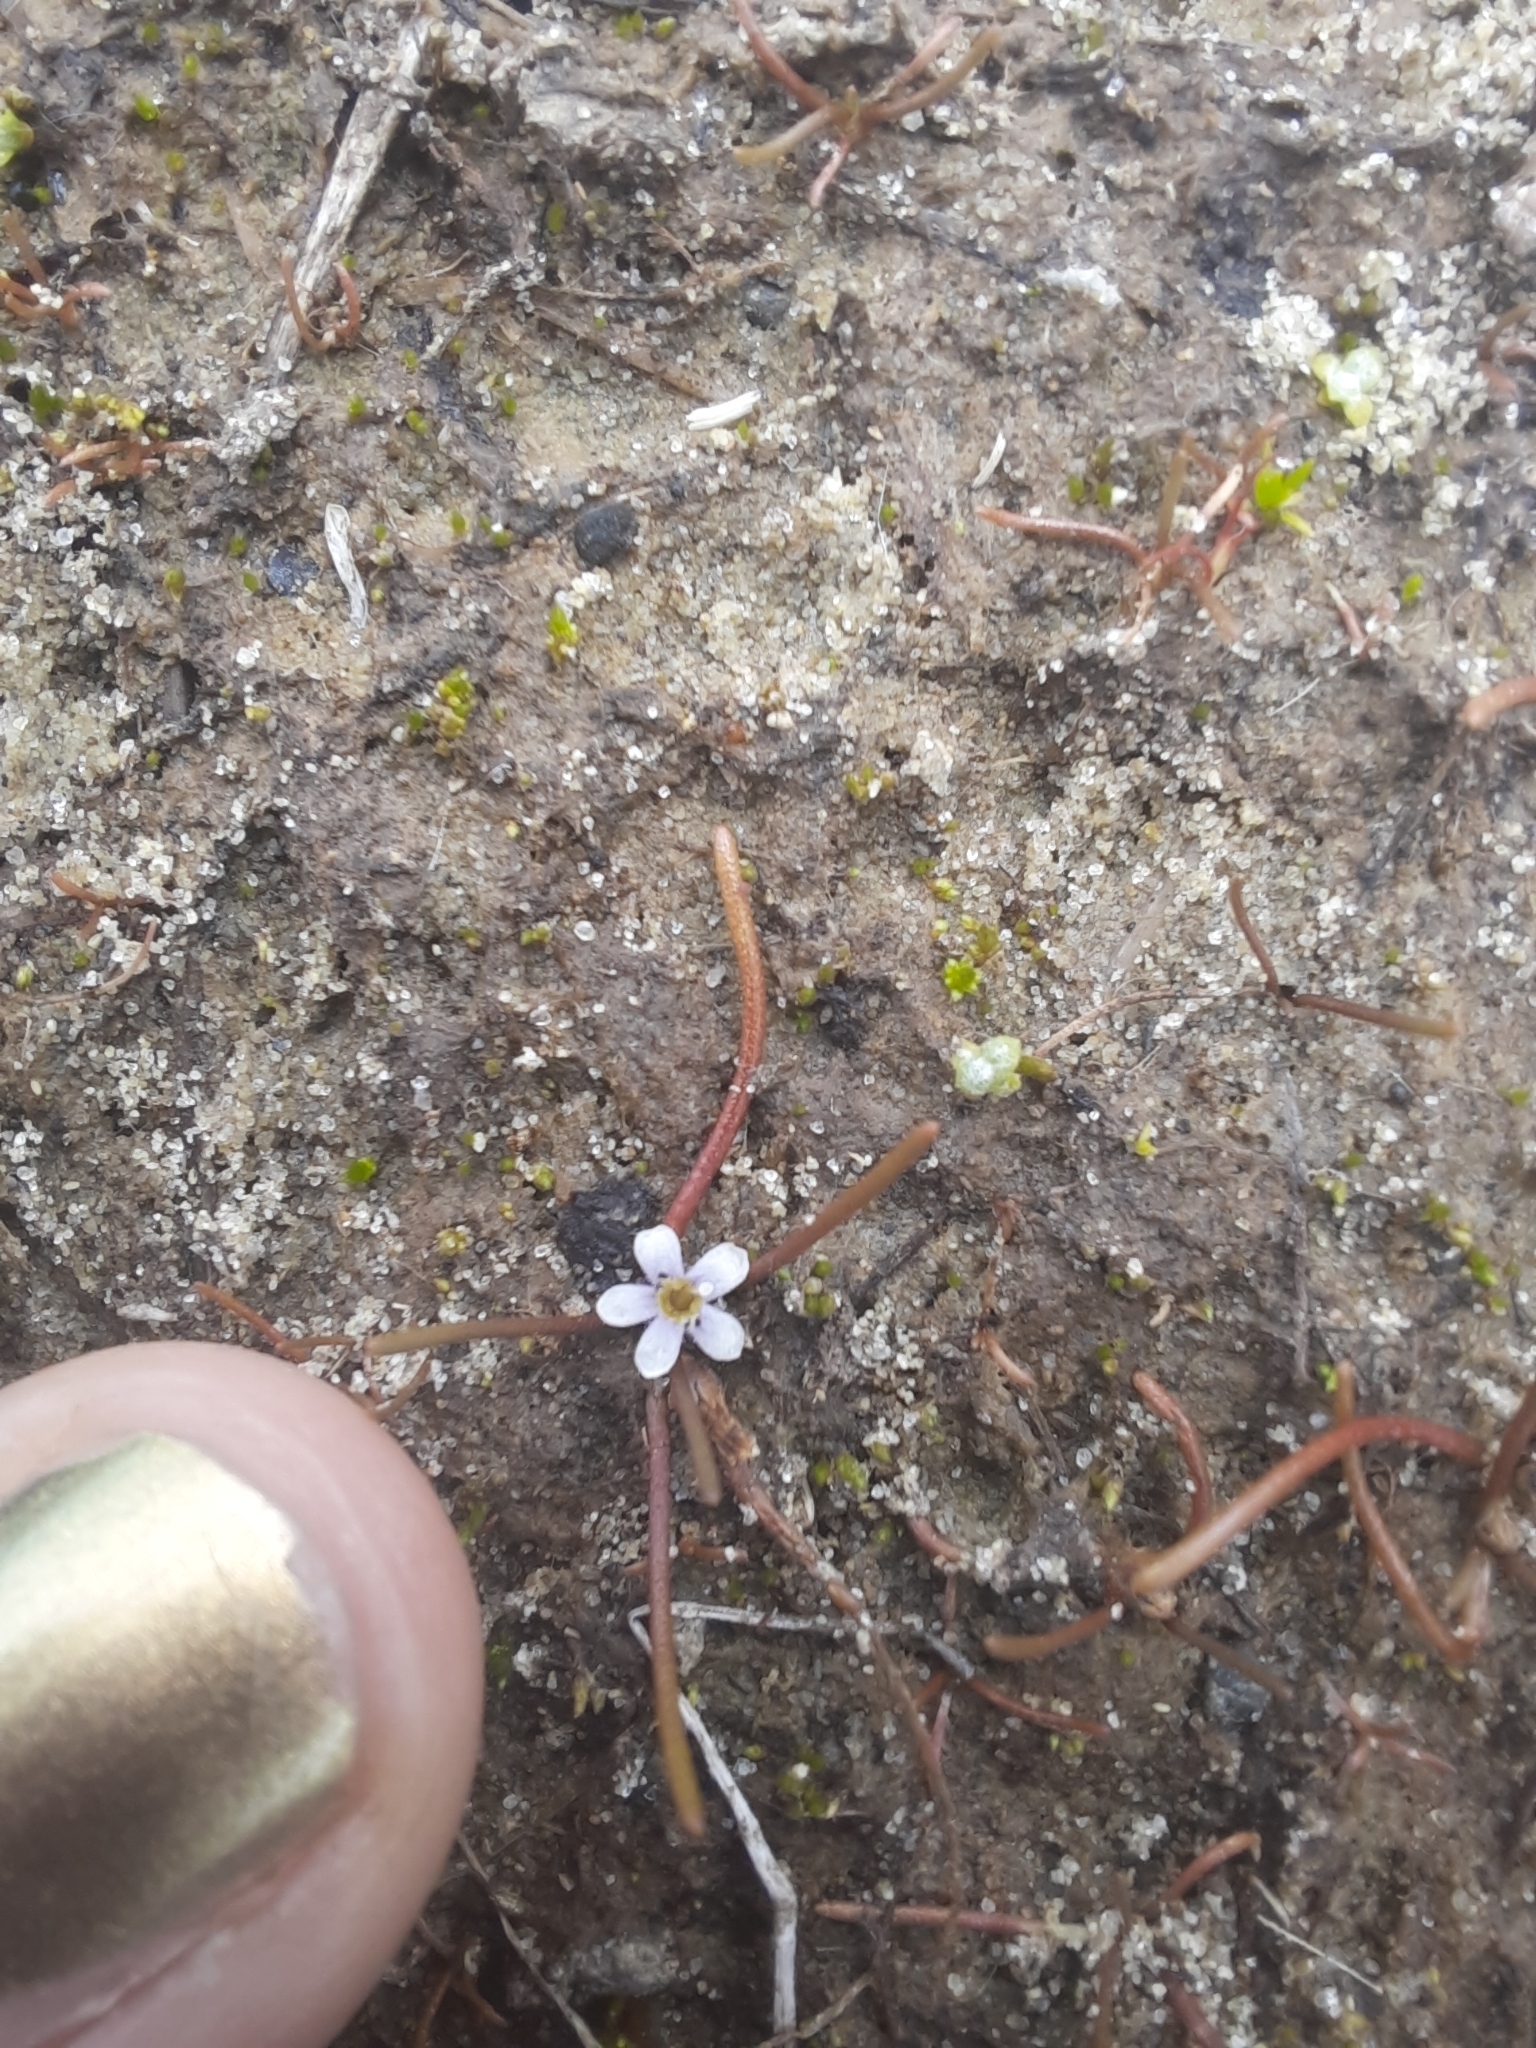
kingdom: Plantae
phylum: Tracheophyta
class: Magnoliopsida
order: Lamiales
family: Scrophulariaceae
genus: Limosella
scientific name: Limosella australis
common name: Welsh mudwort
